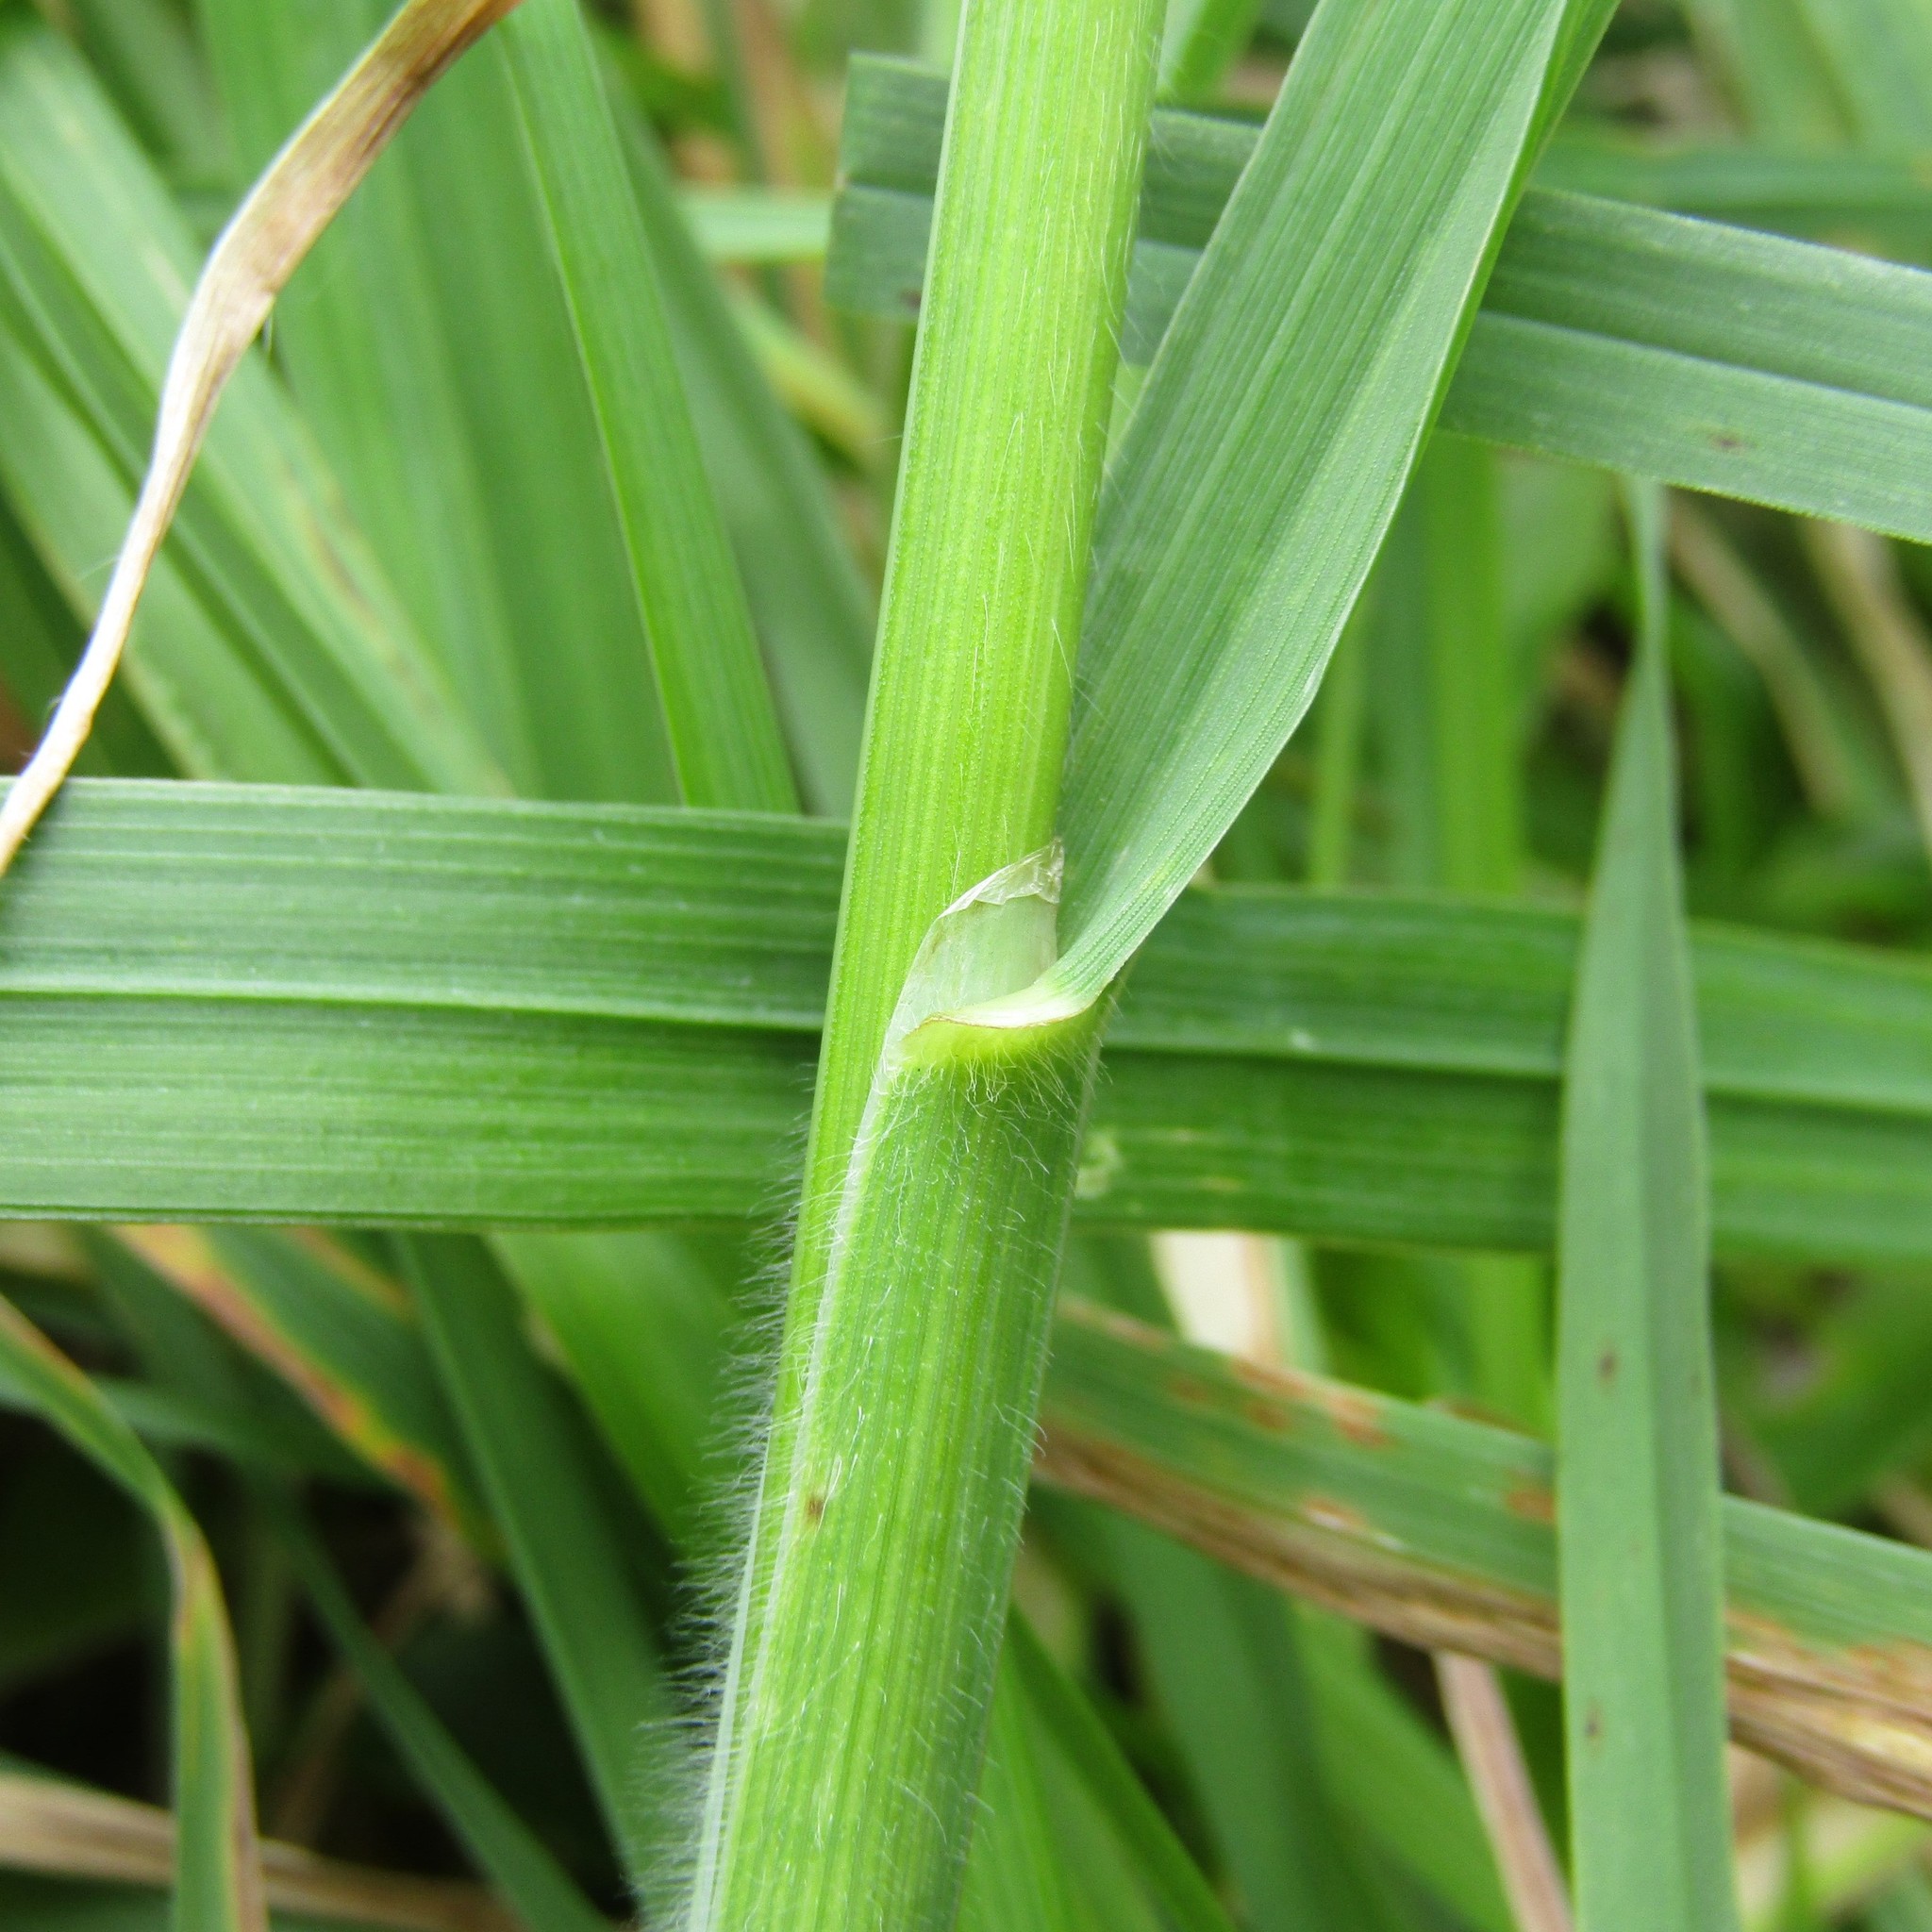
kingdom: Plantae
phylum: Tracheophyta
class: Liliopsida
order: Poales
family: Poaceae
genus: Lolium
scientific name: Lolium arundinaceum
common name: Reed fescue
